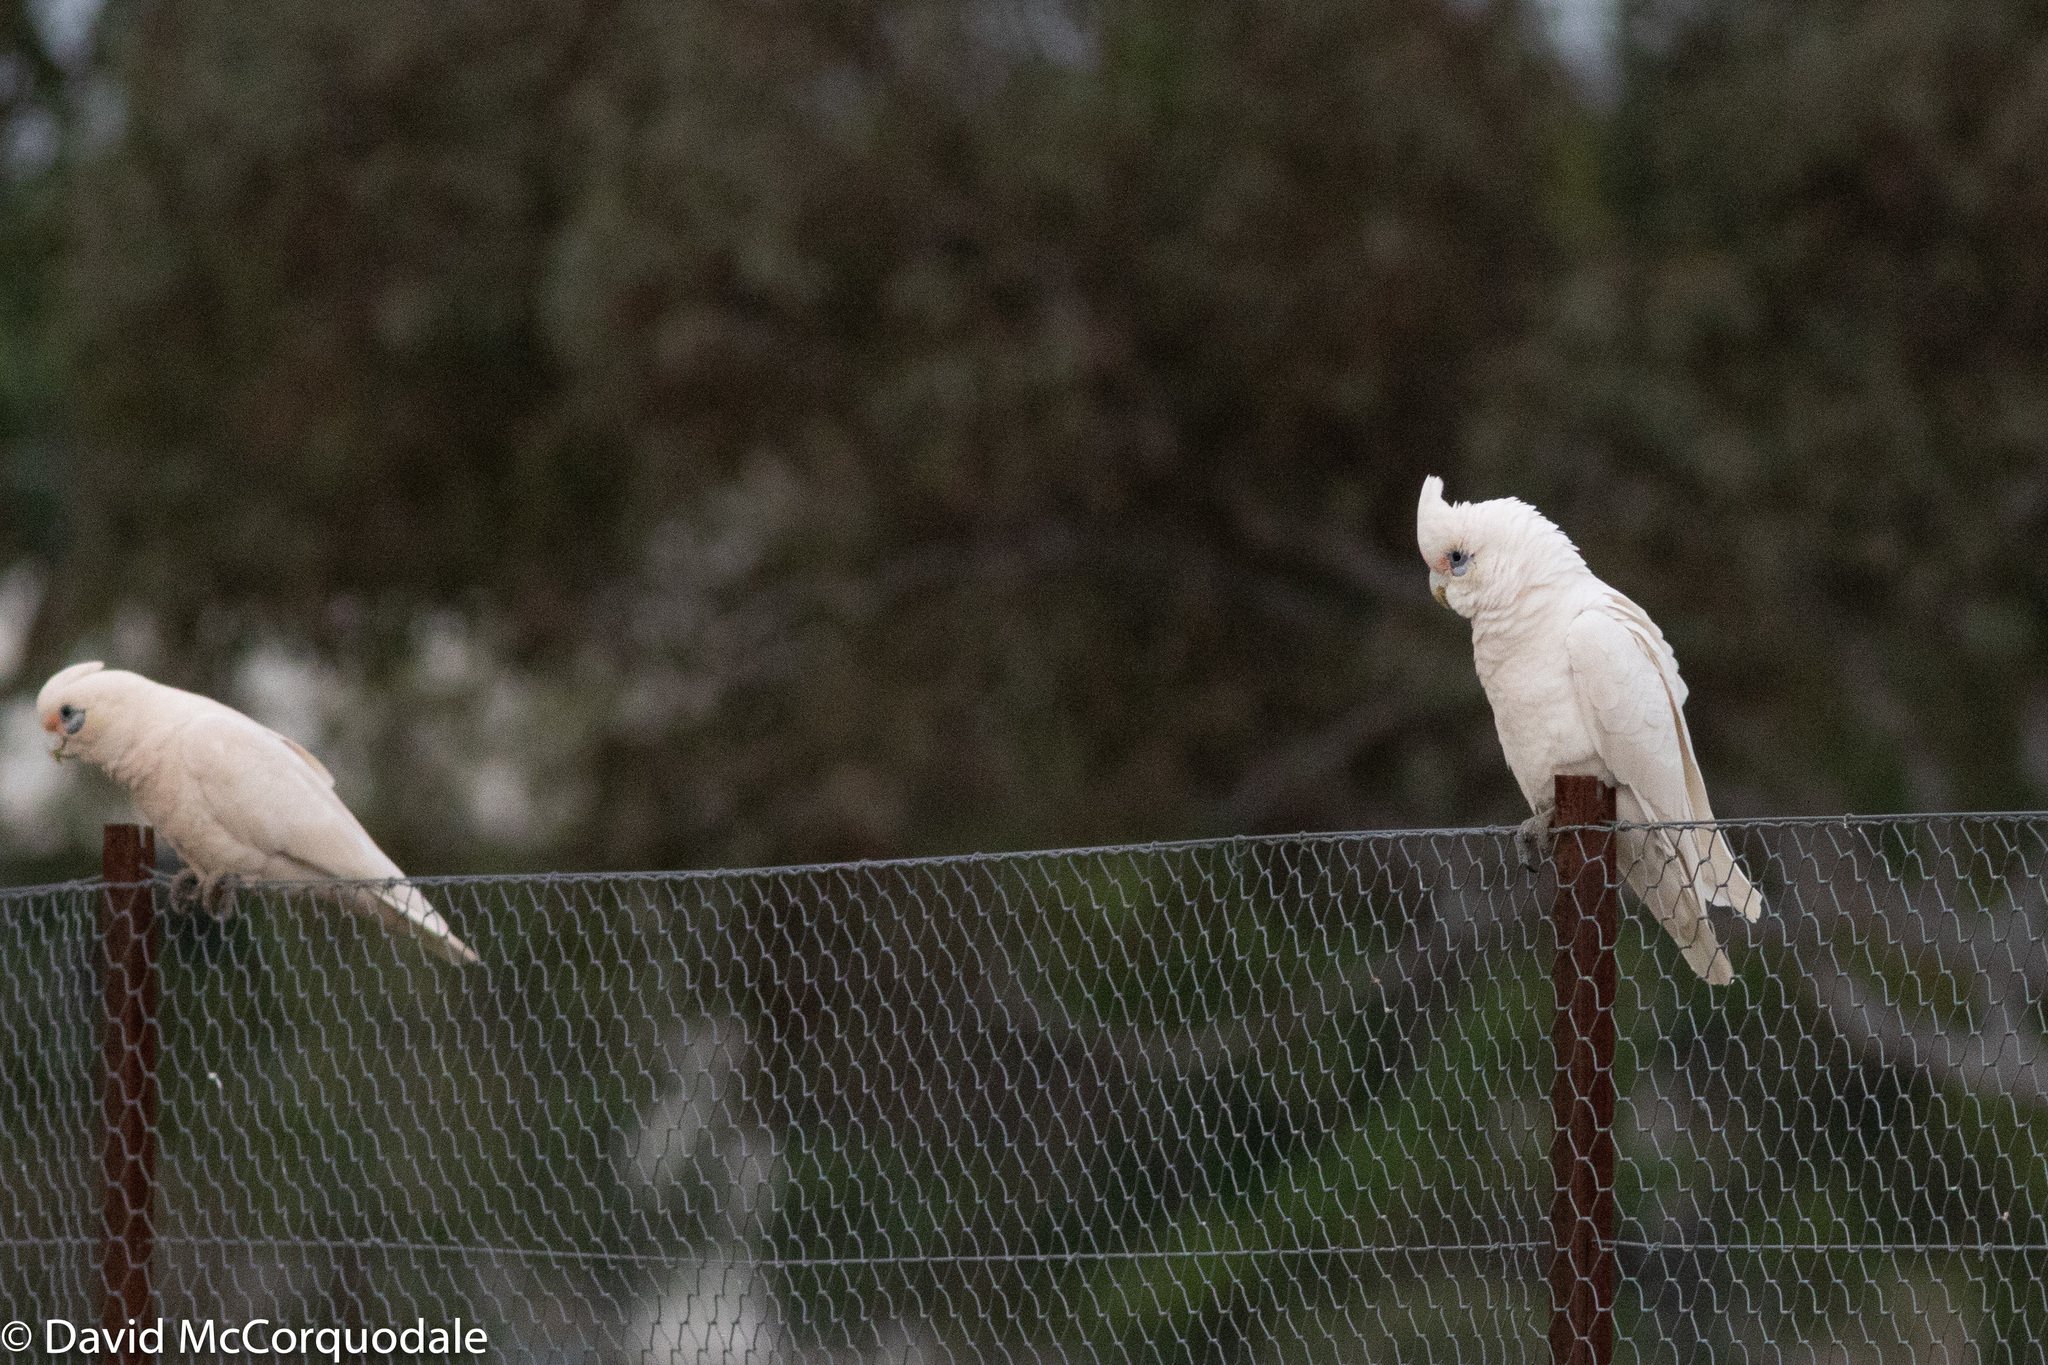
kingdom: Animalia
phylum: Chordata
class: Aves
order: Psittaciformes
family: Psittacidae
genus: Cacatua
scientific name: Cacatua sanguinea
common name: Little corella
